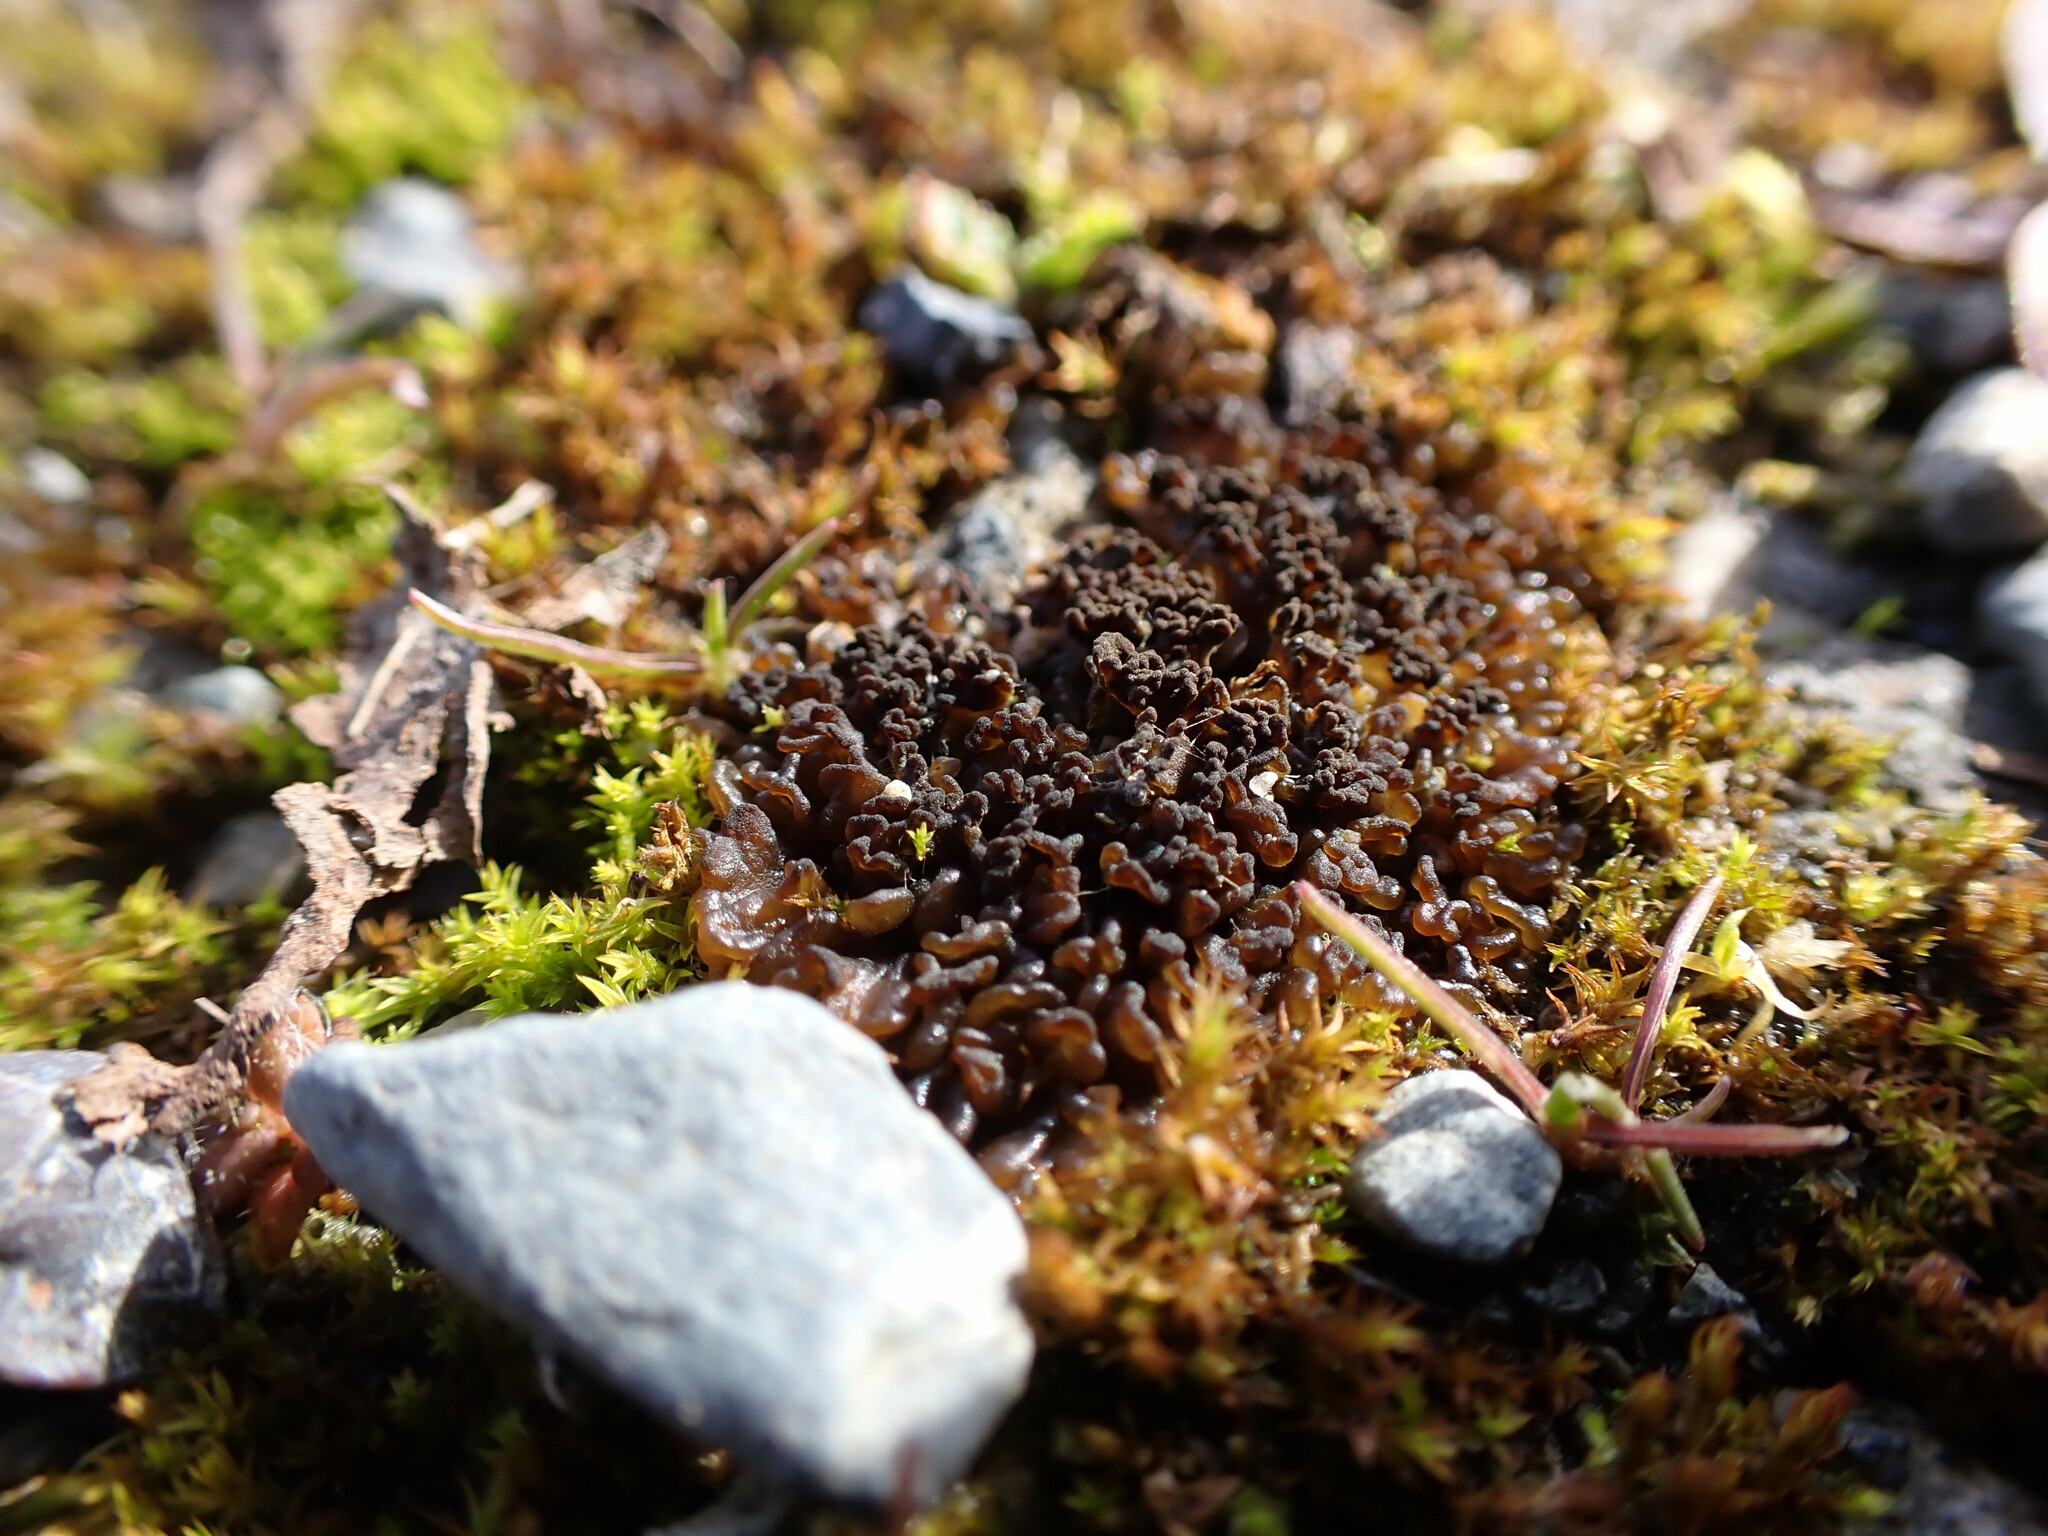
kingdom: Bacteria
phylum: Cyanobacteria
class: Cyanobacteriia
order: Cyanobacteriales
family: Nostocaceae
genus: Nostoc
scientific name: Nostoc commune
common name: Star jelly
